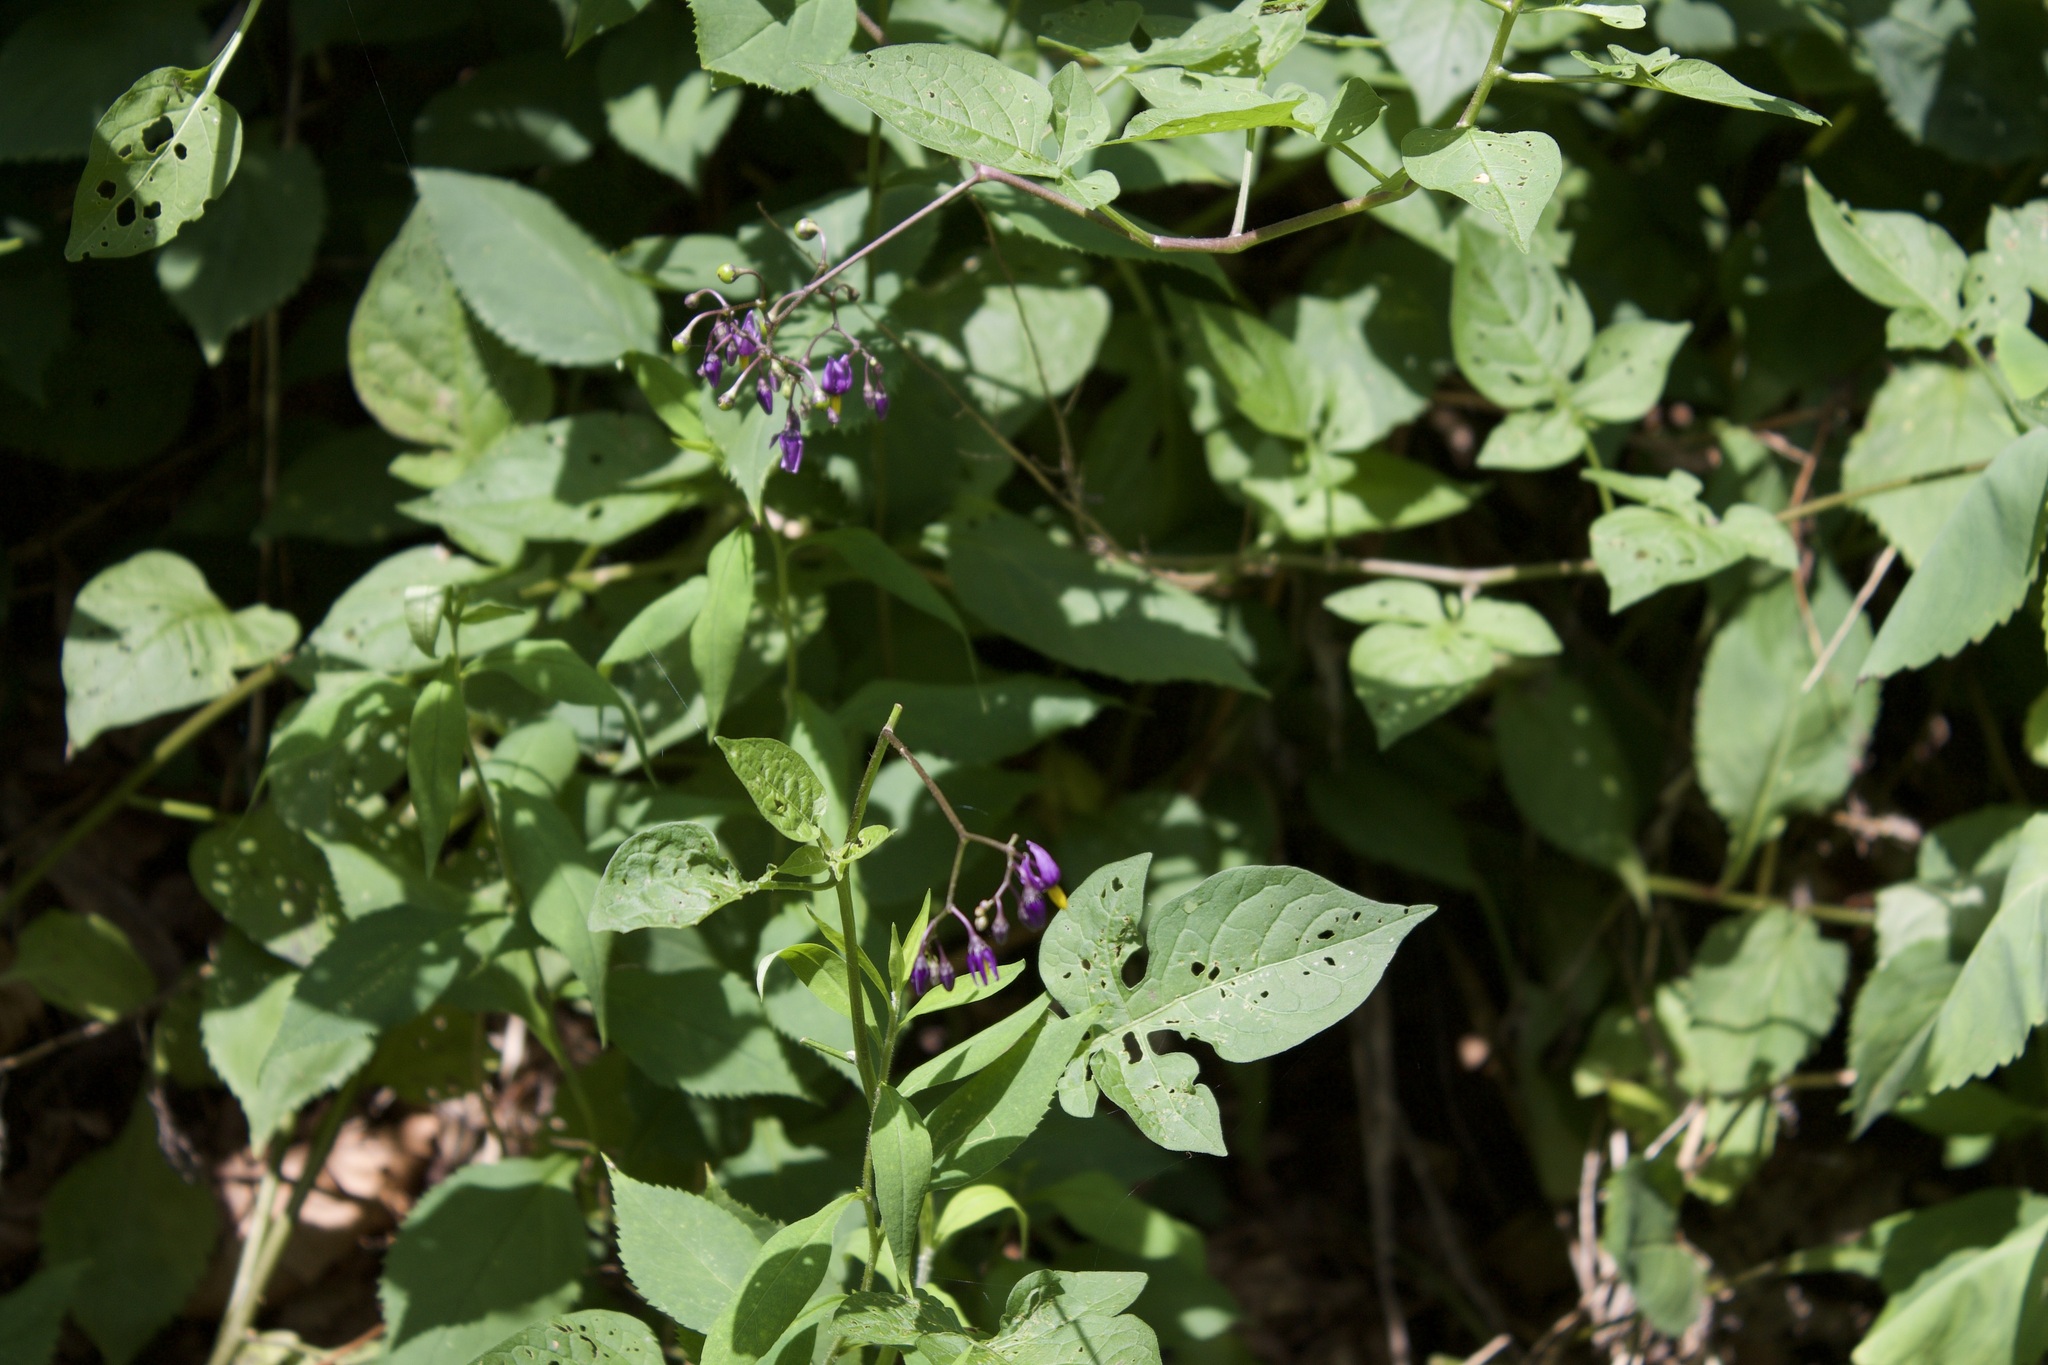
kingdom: Plantae
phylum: Tracheophyta
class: Magnoliopsida
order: Solanales
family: Solanaceae
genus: Solanum
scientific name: Solanum dulcamara
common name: Climbing nightshade
